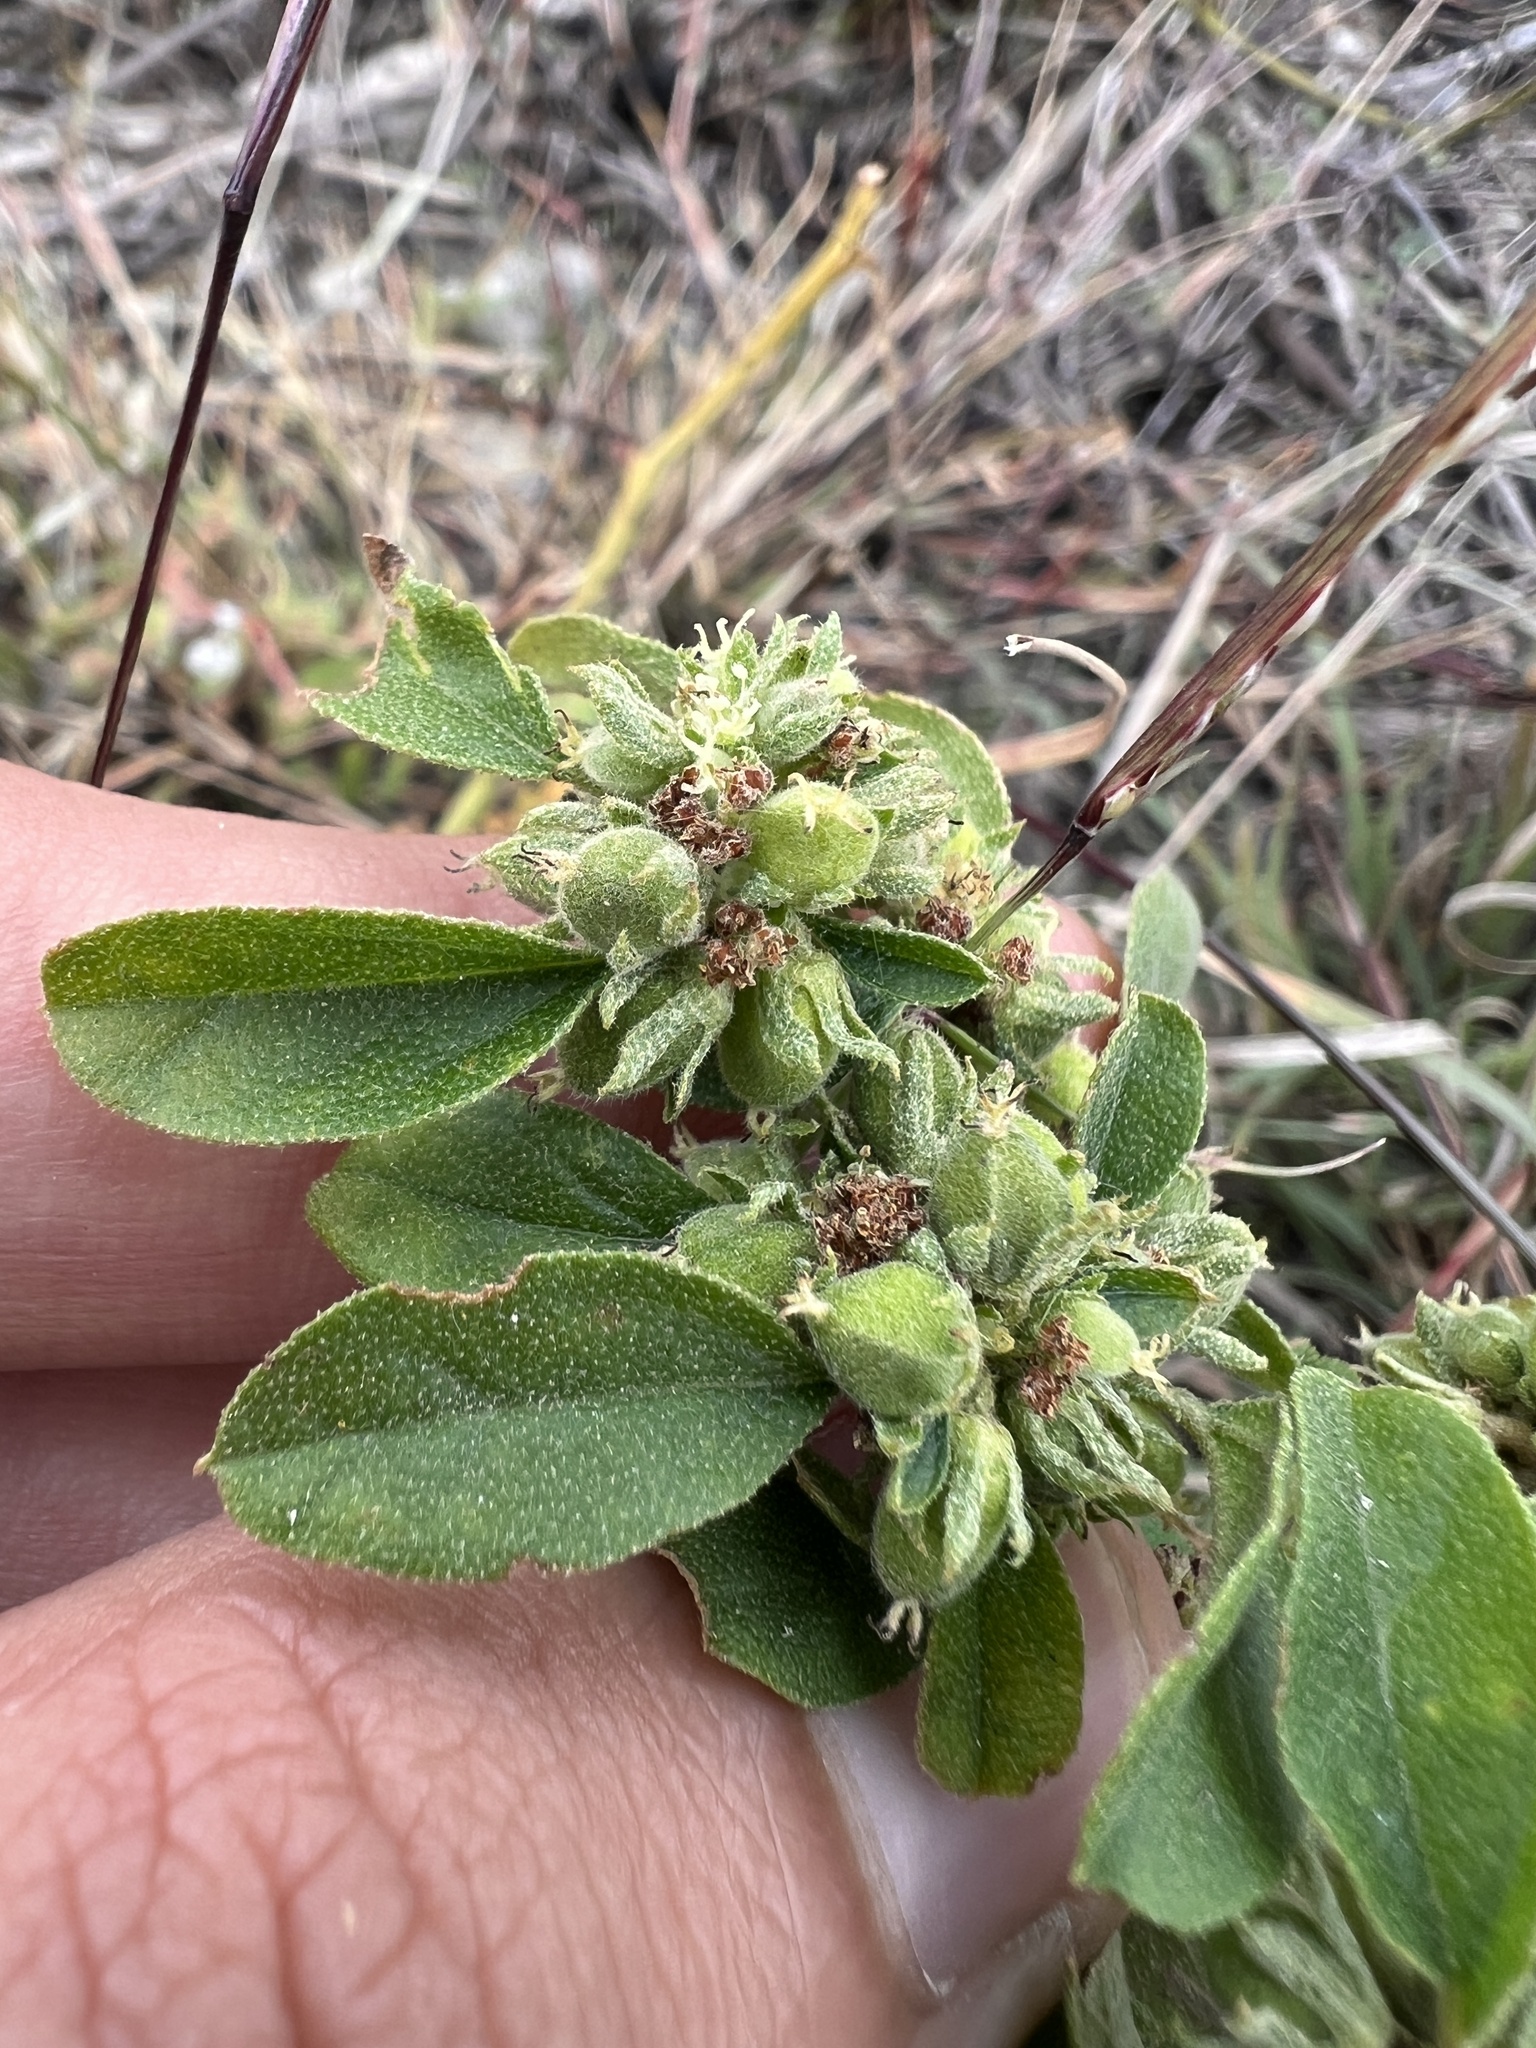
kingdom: Plantae
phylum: Tracheophyta
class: Magnoliopsida
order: Malpighiales
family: Euphorbiaceae
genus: Croton
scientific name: Croton monanthogynus
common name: One-seed croton
